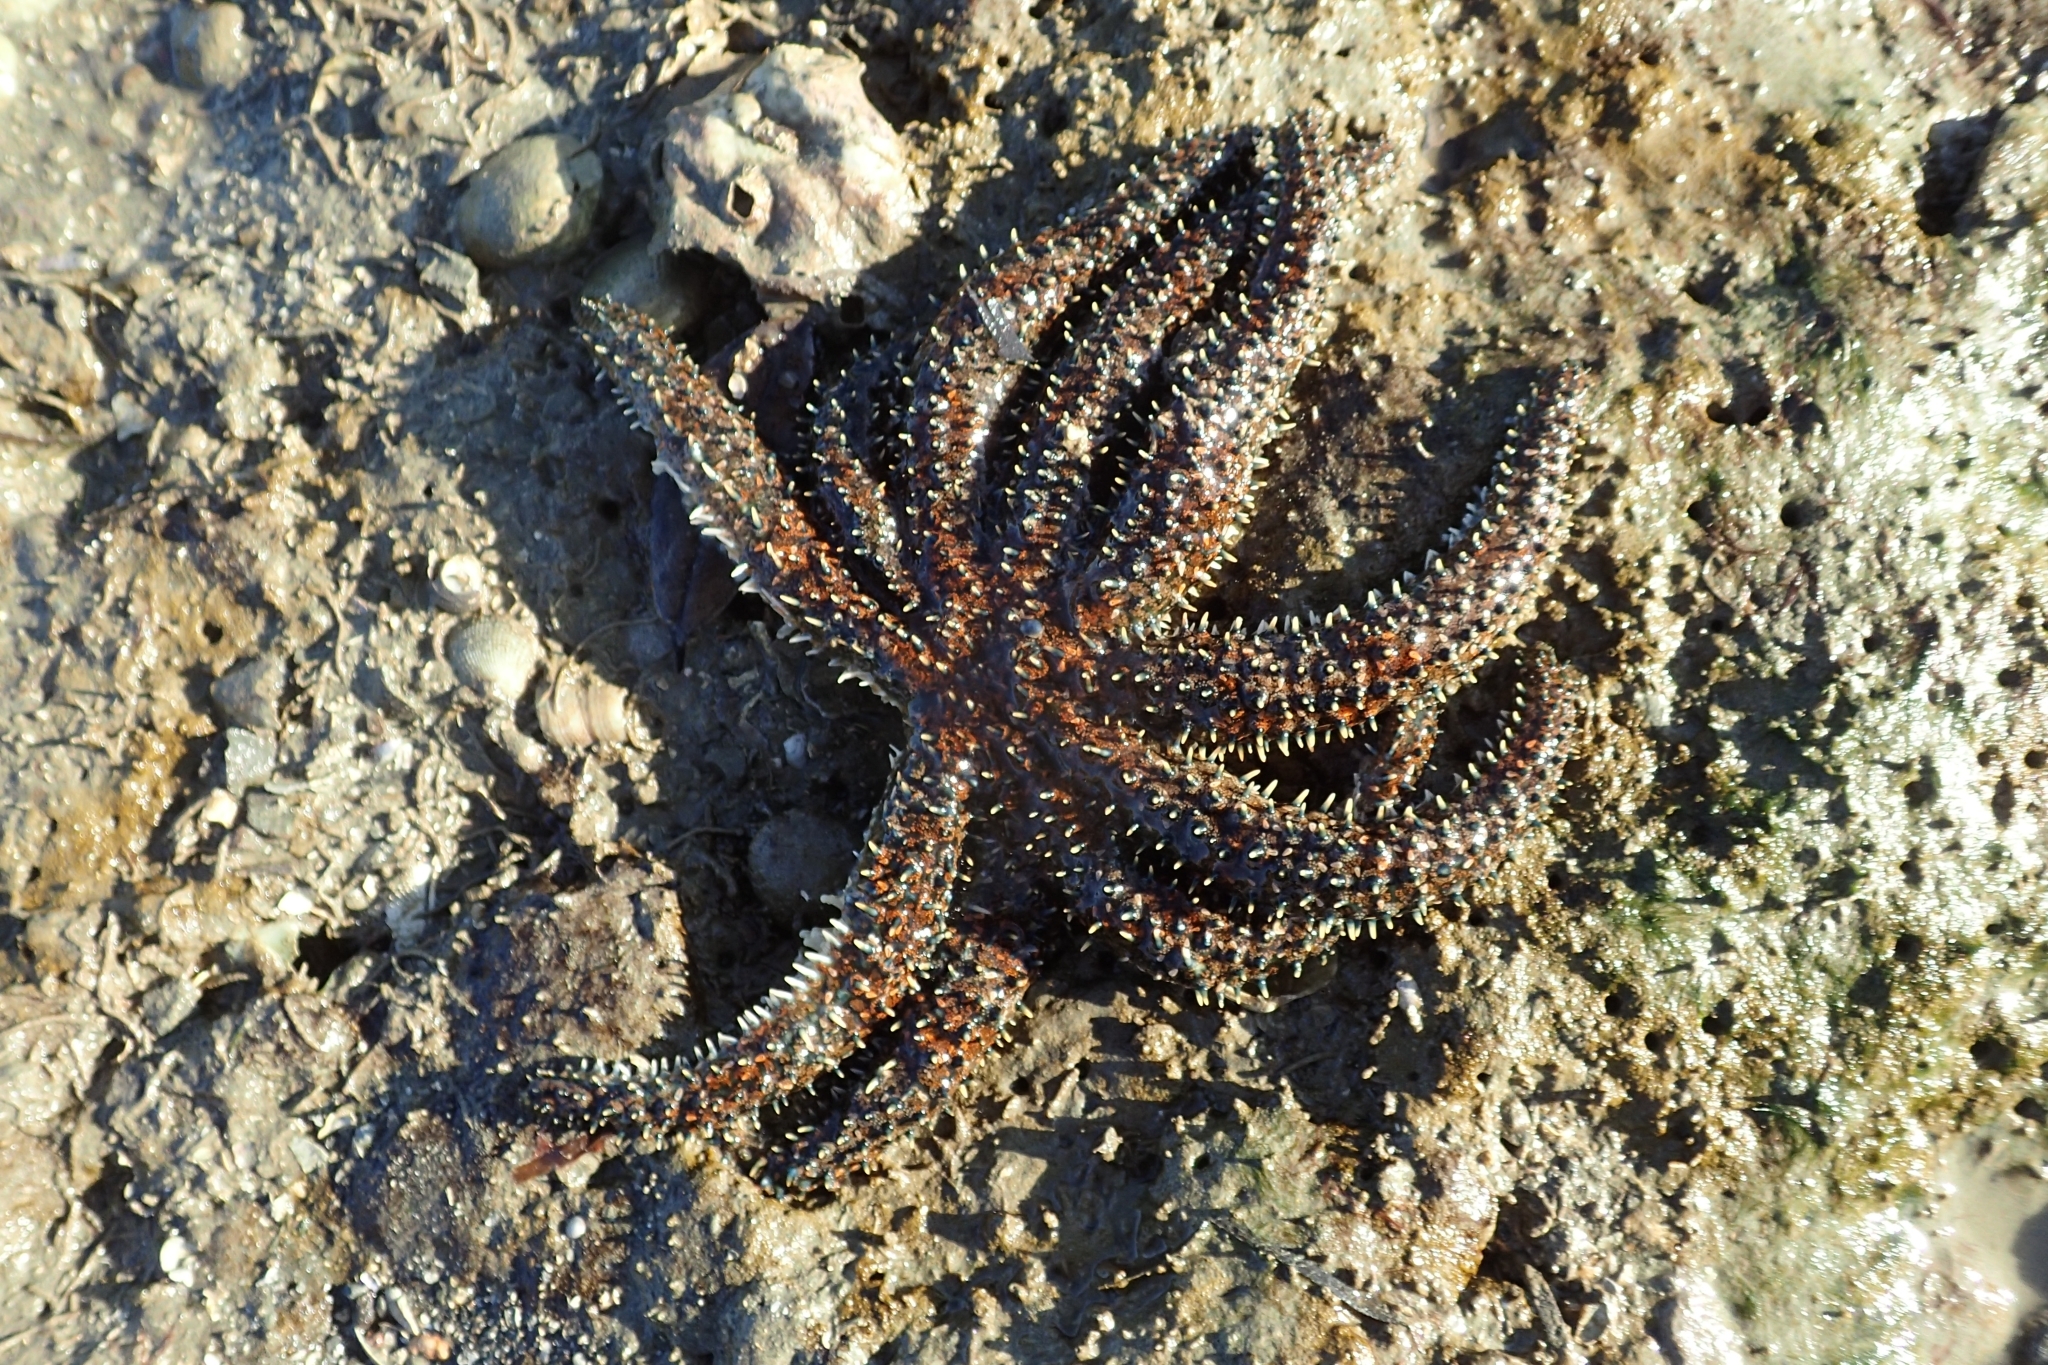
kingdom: Animalia
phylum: Echinodermata
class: Asteroidea
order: Forcipulatida
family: Asteriidae
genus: Coscinasterias
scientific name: Coscinasterias muricata
